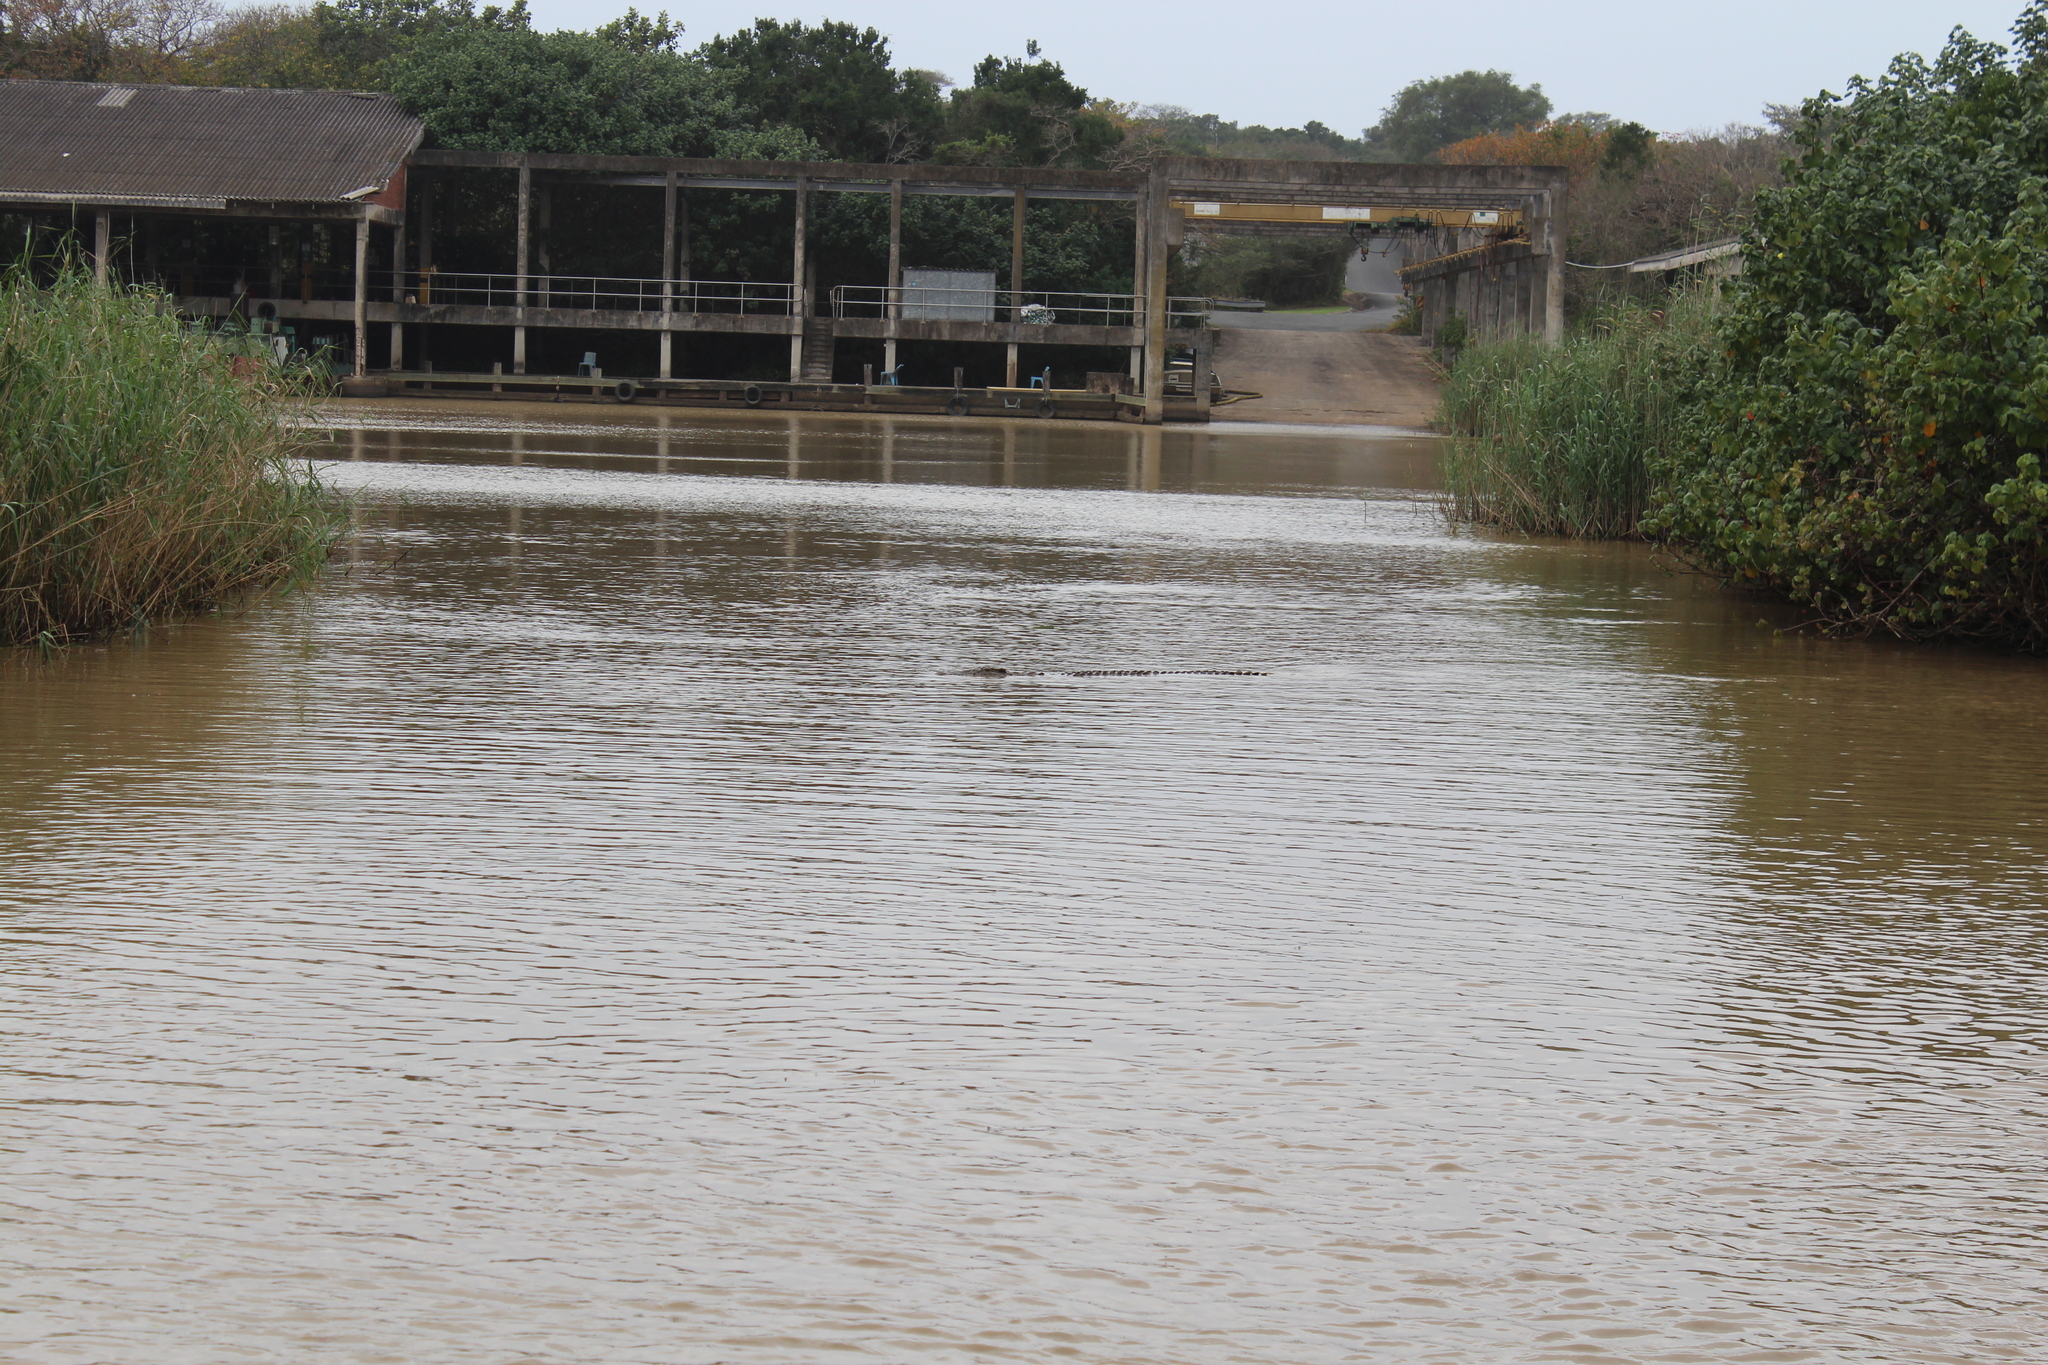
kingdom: Animalia
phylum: Chordata
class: Crocodylia
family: Crocodylidae
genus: Crocodylus
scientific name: Crocodylus niloticus
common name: Nile crocodile
